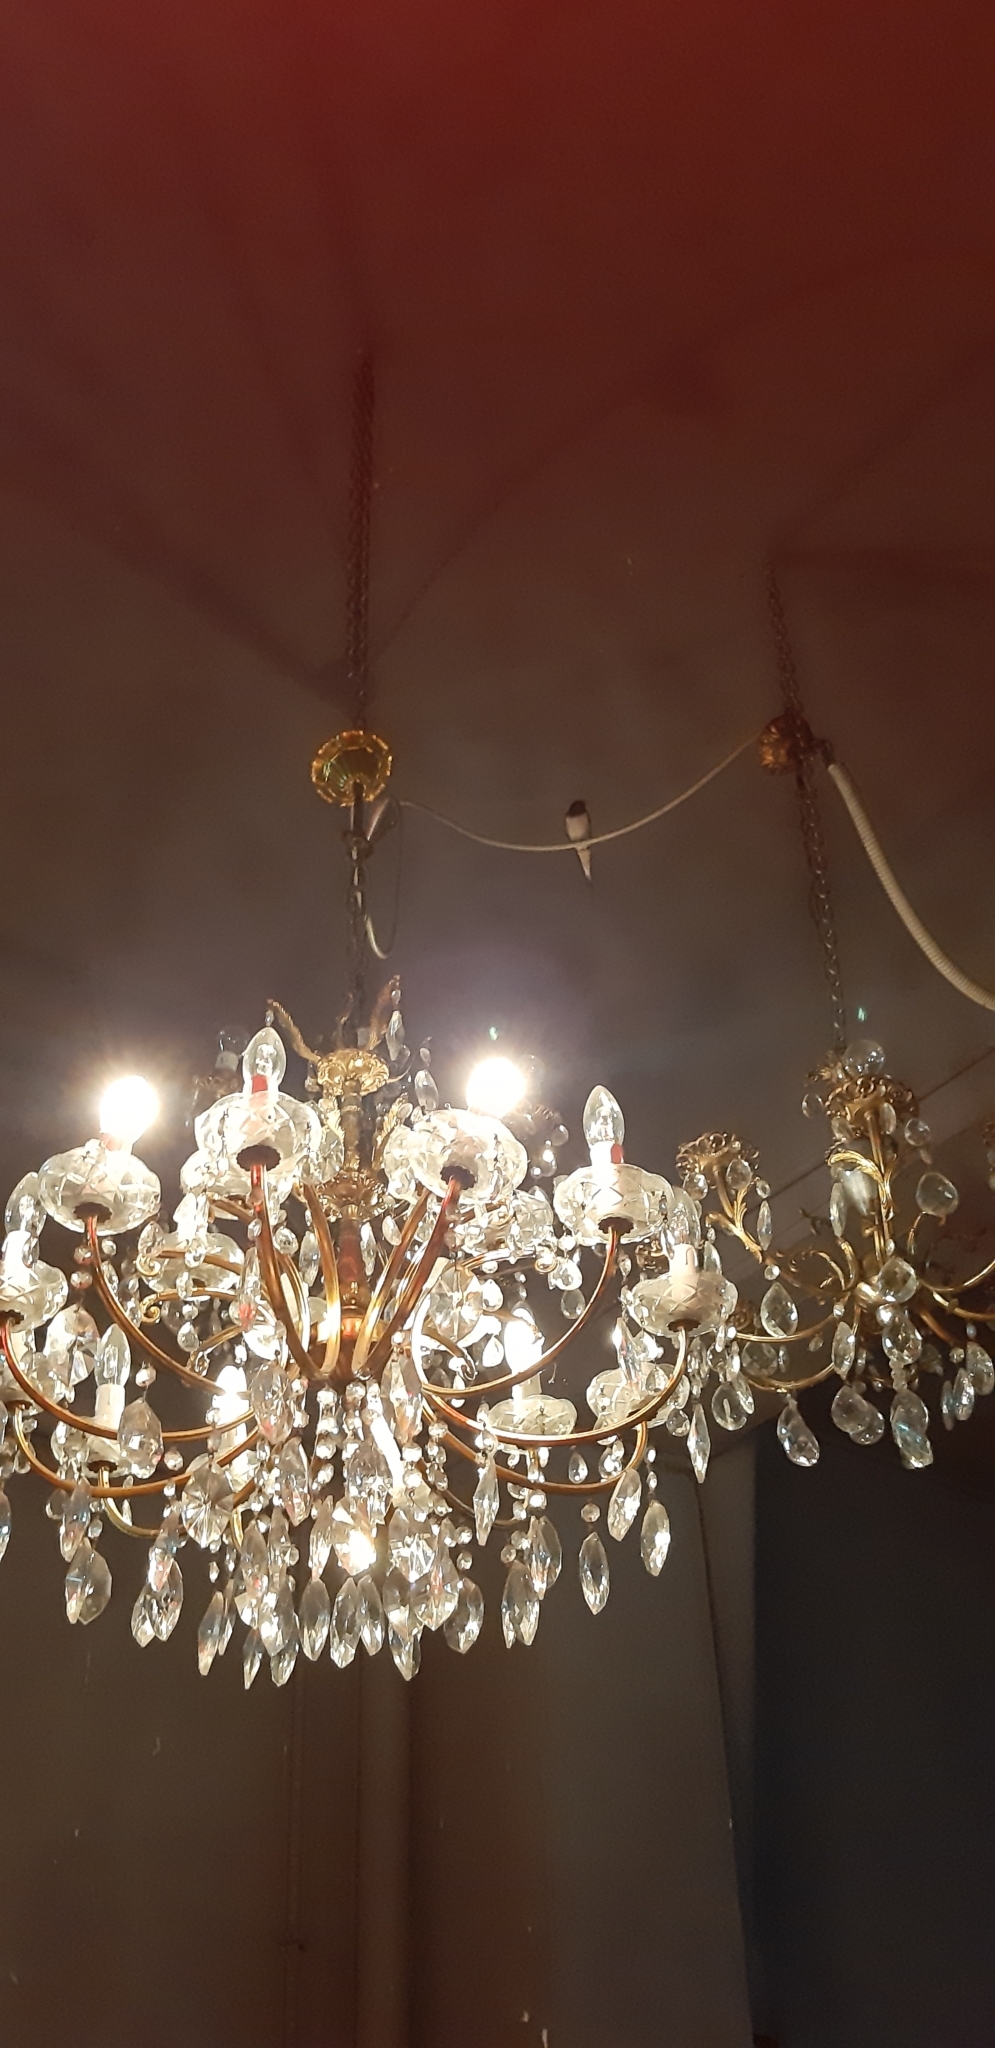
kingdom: Animalia
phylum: Chordata
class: Aves
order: Passeriformes
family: Hirundinidae
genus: Hirundo
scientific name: Hirundo rustica
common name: Barn swallow
